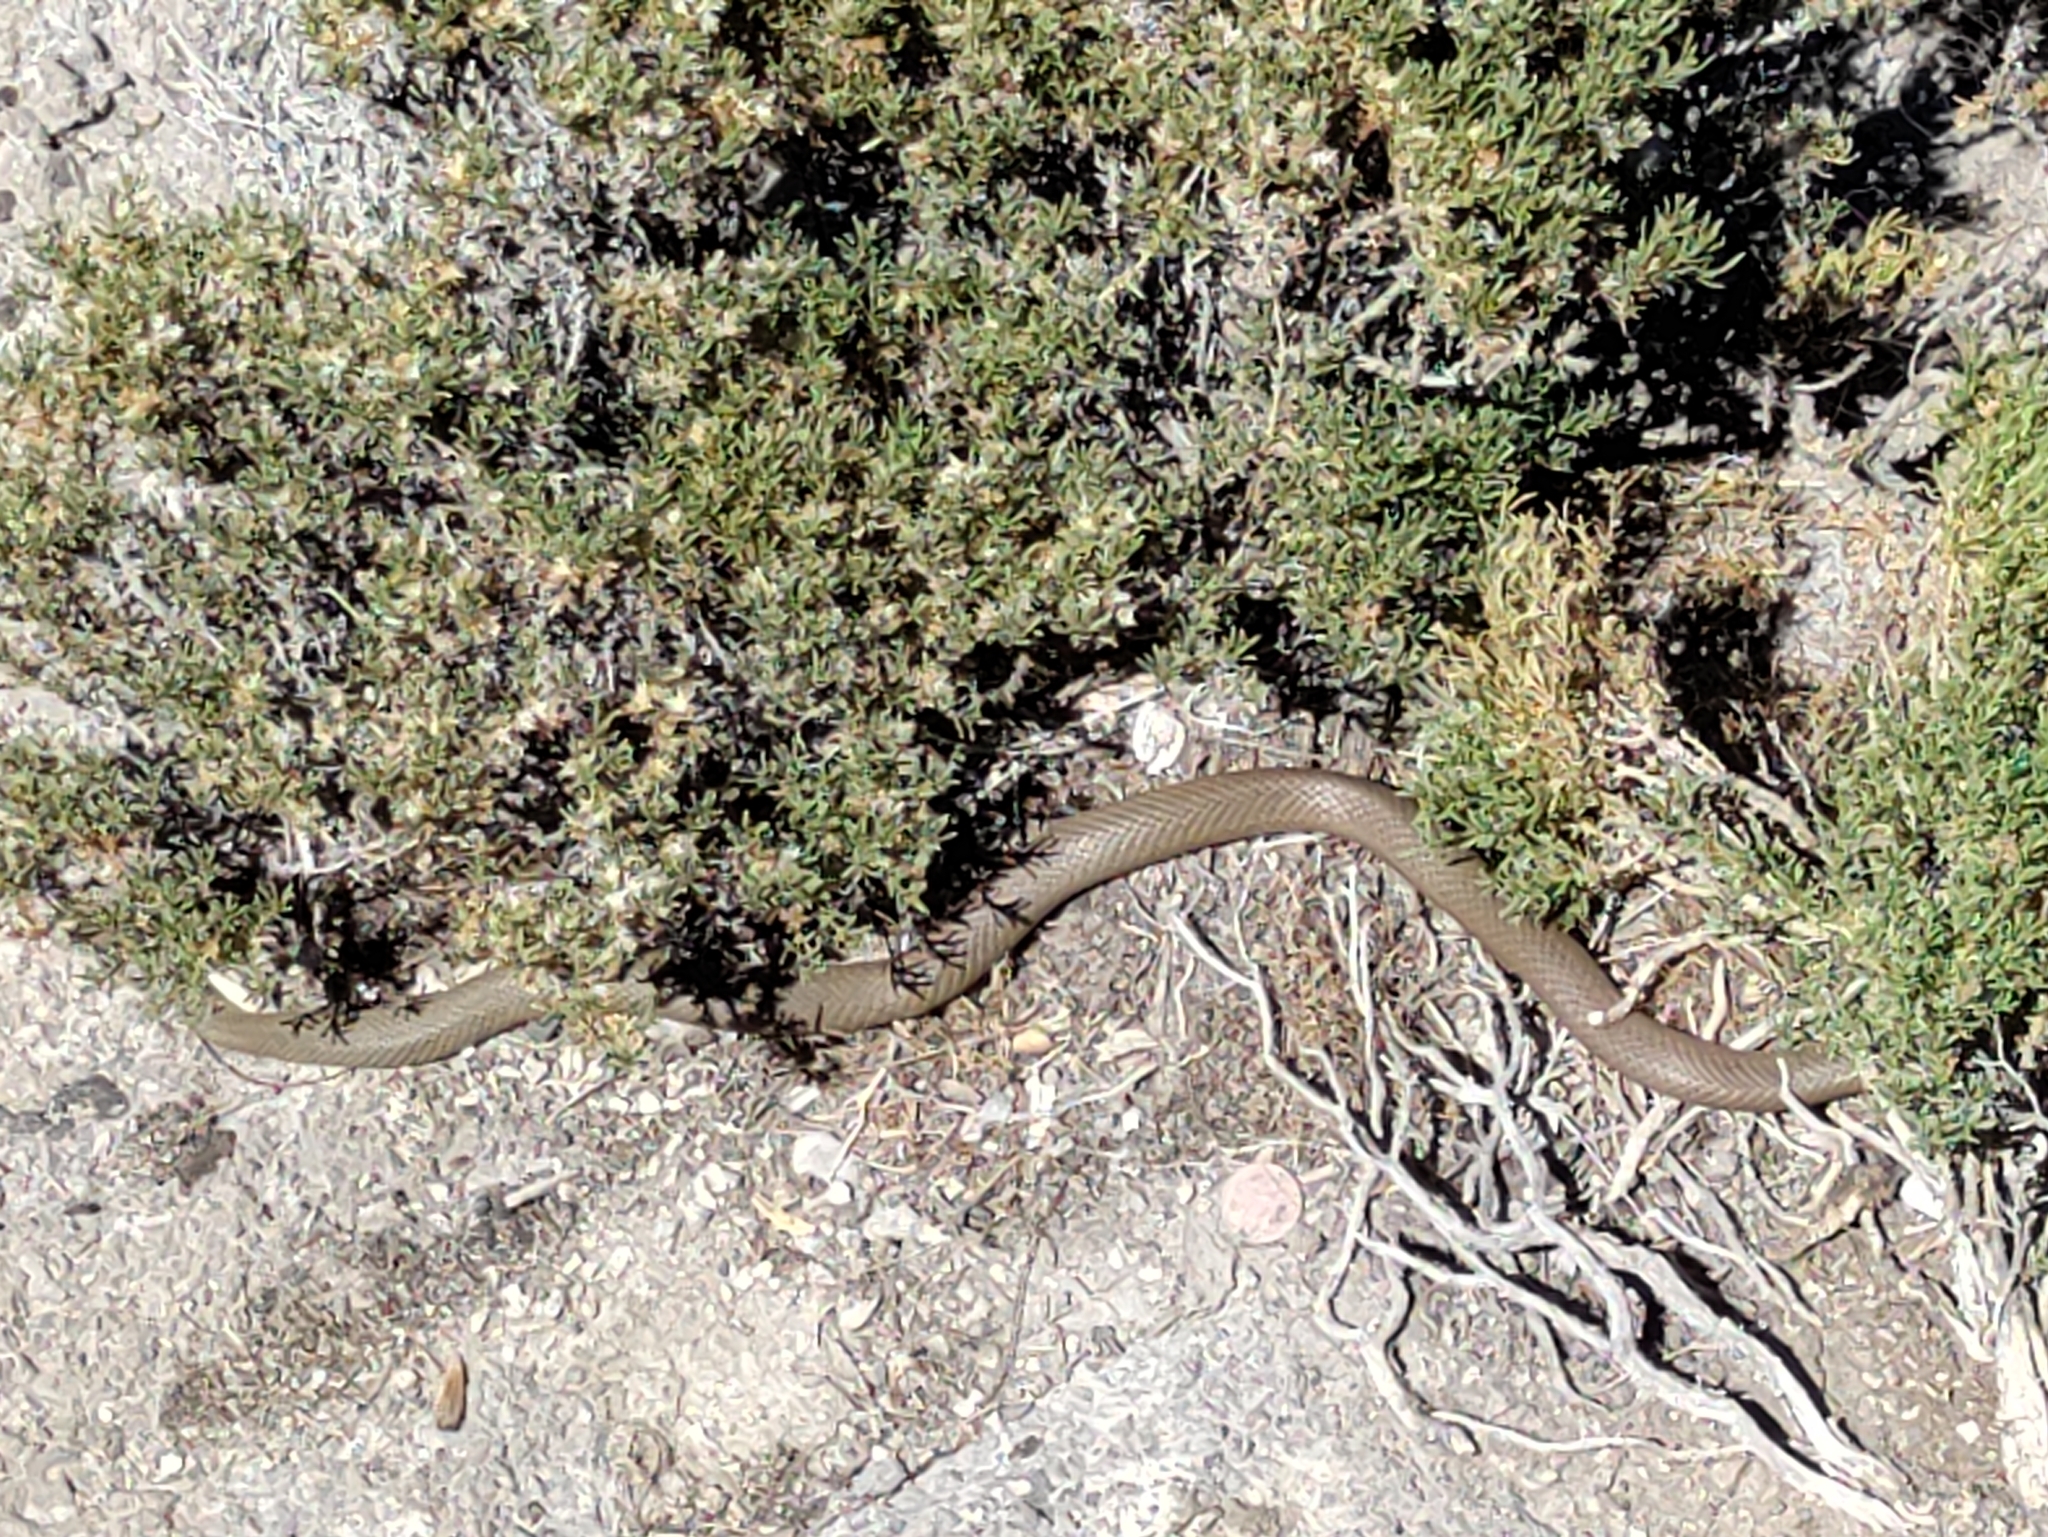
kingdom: Animalia
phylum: Chordata
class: Squamata
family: Colubridae
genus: Coluber
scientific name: Coluber constrictor
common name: Eastern racer
